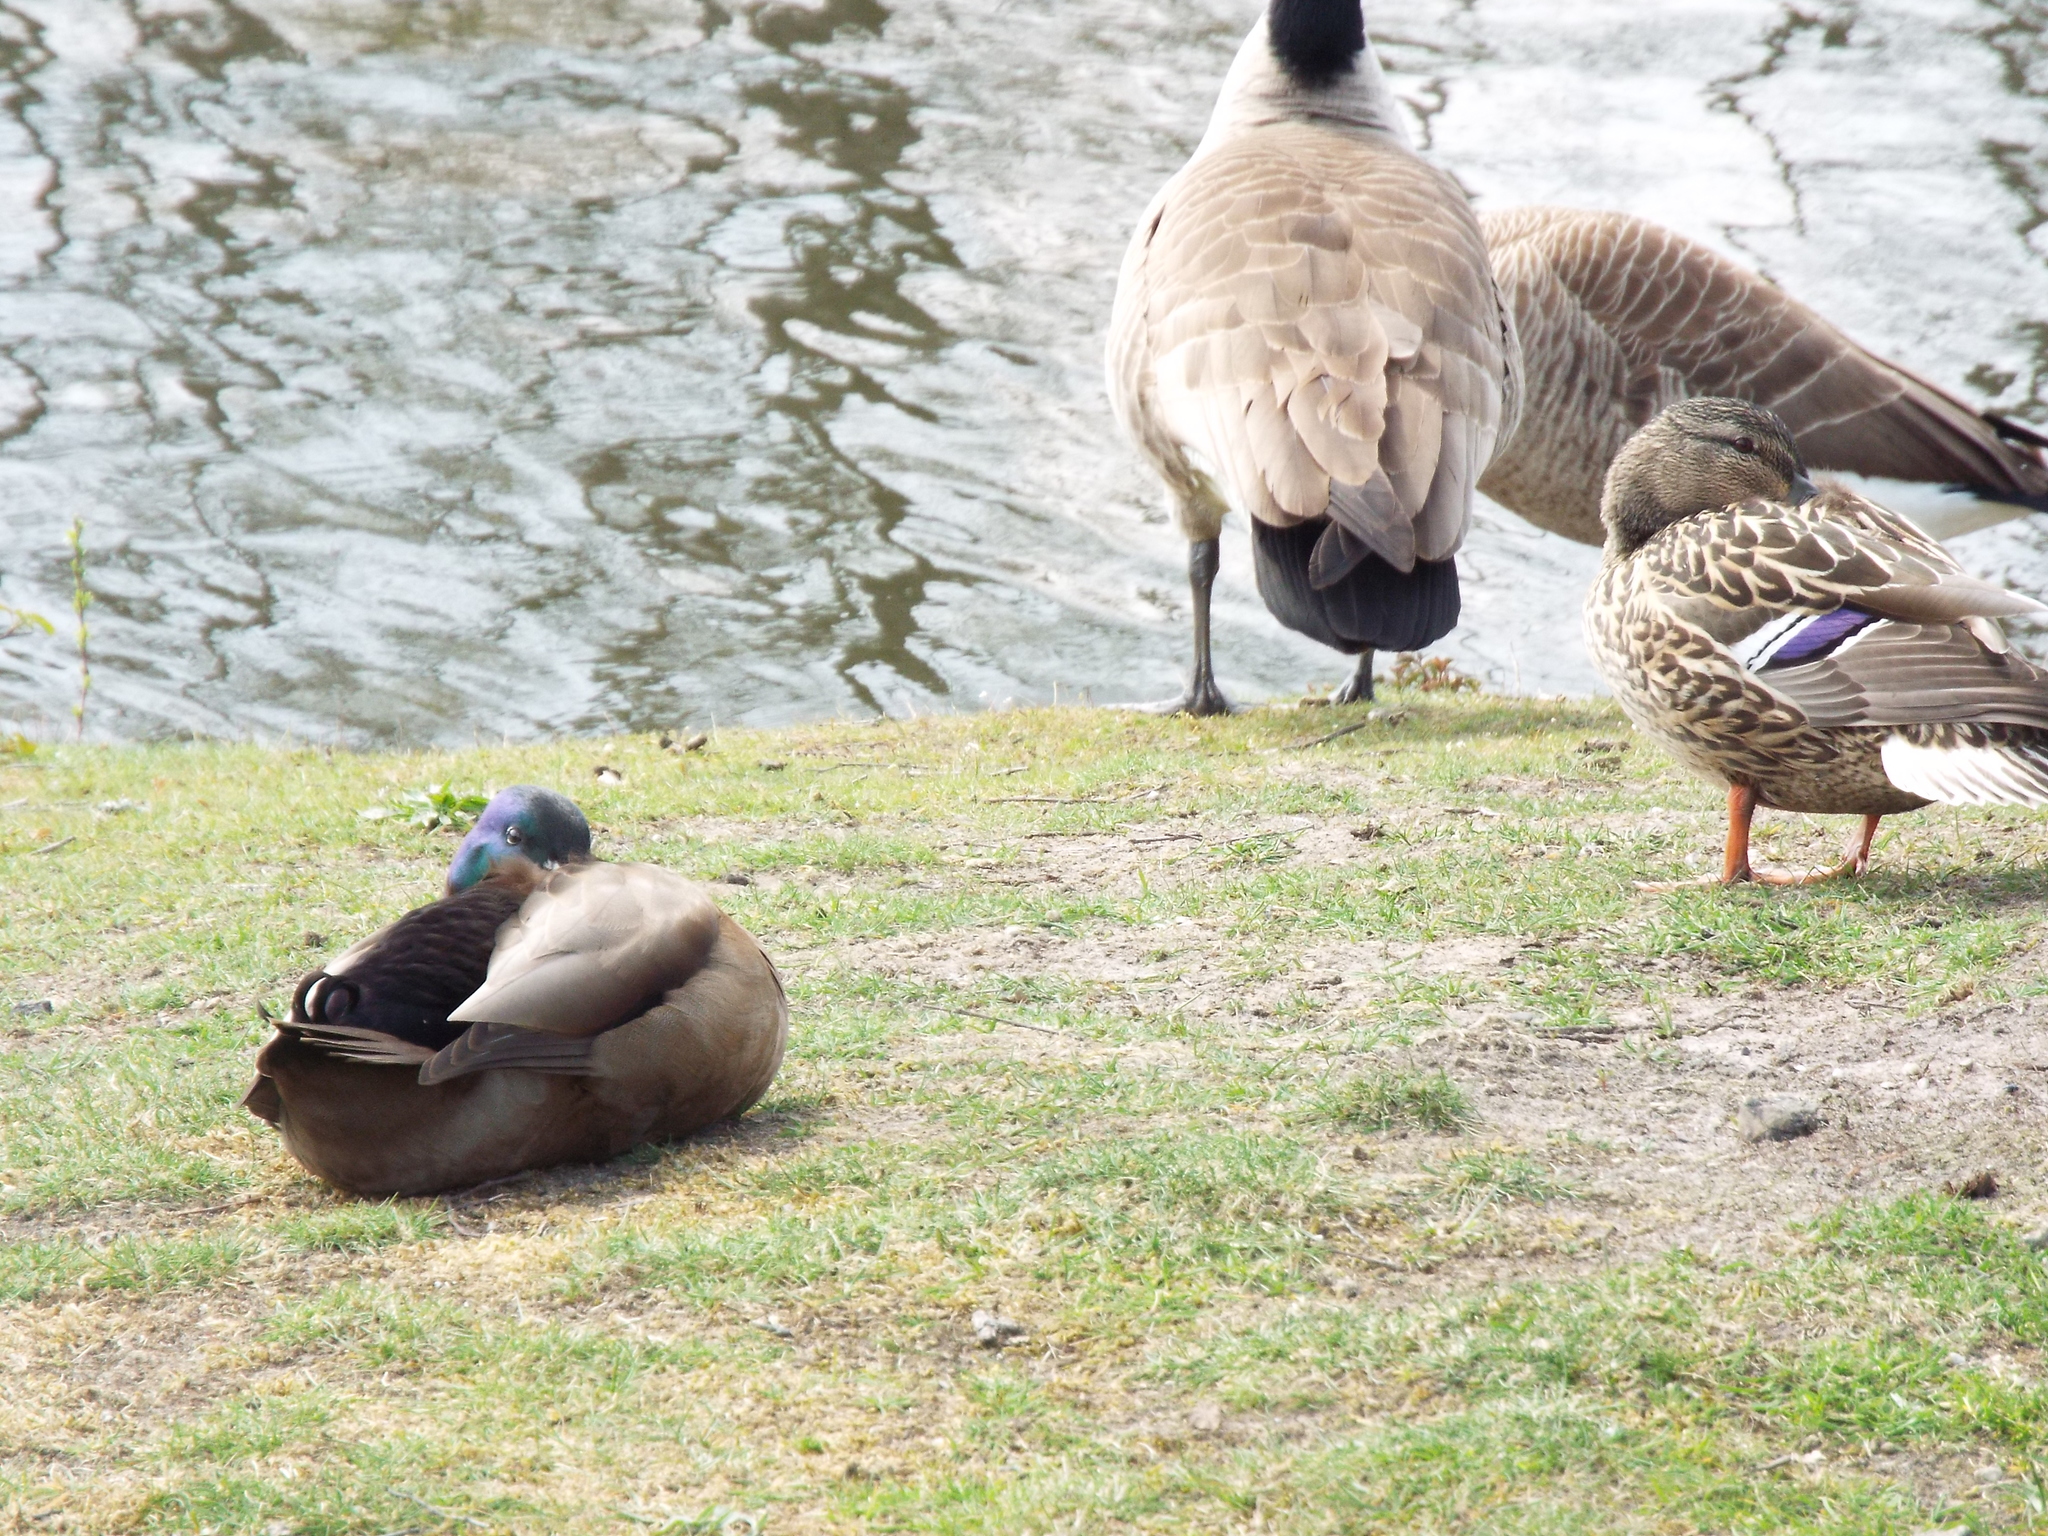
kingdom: Animalia
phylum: Chordata
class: Aves
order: Anseriformes
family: Anatidae
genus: Anas
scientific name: Anas platyrhynchos
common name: Mallard
